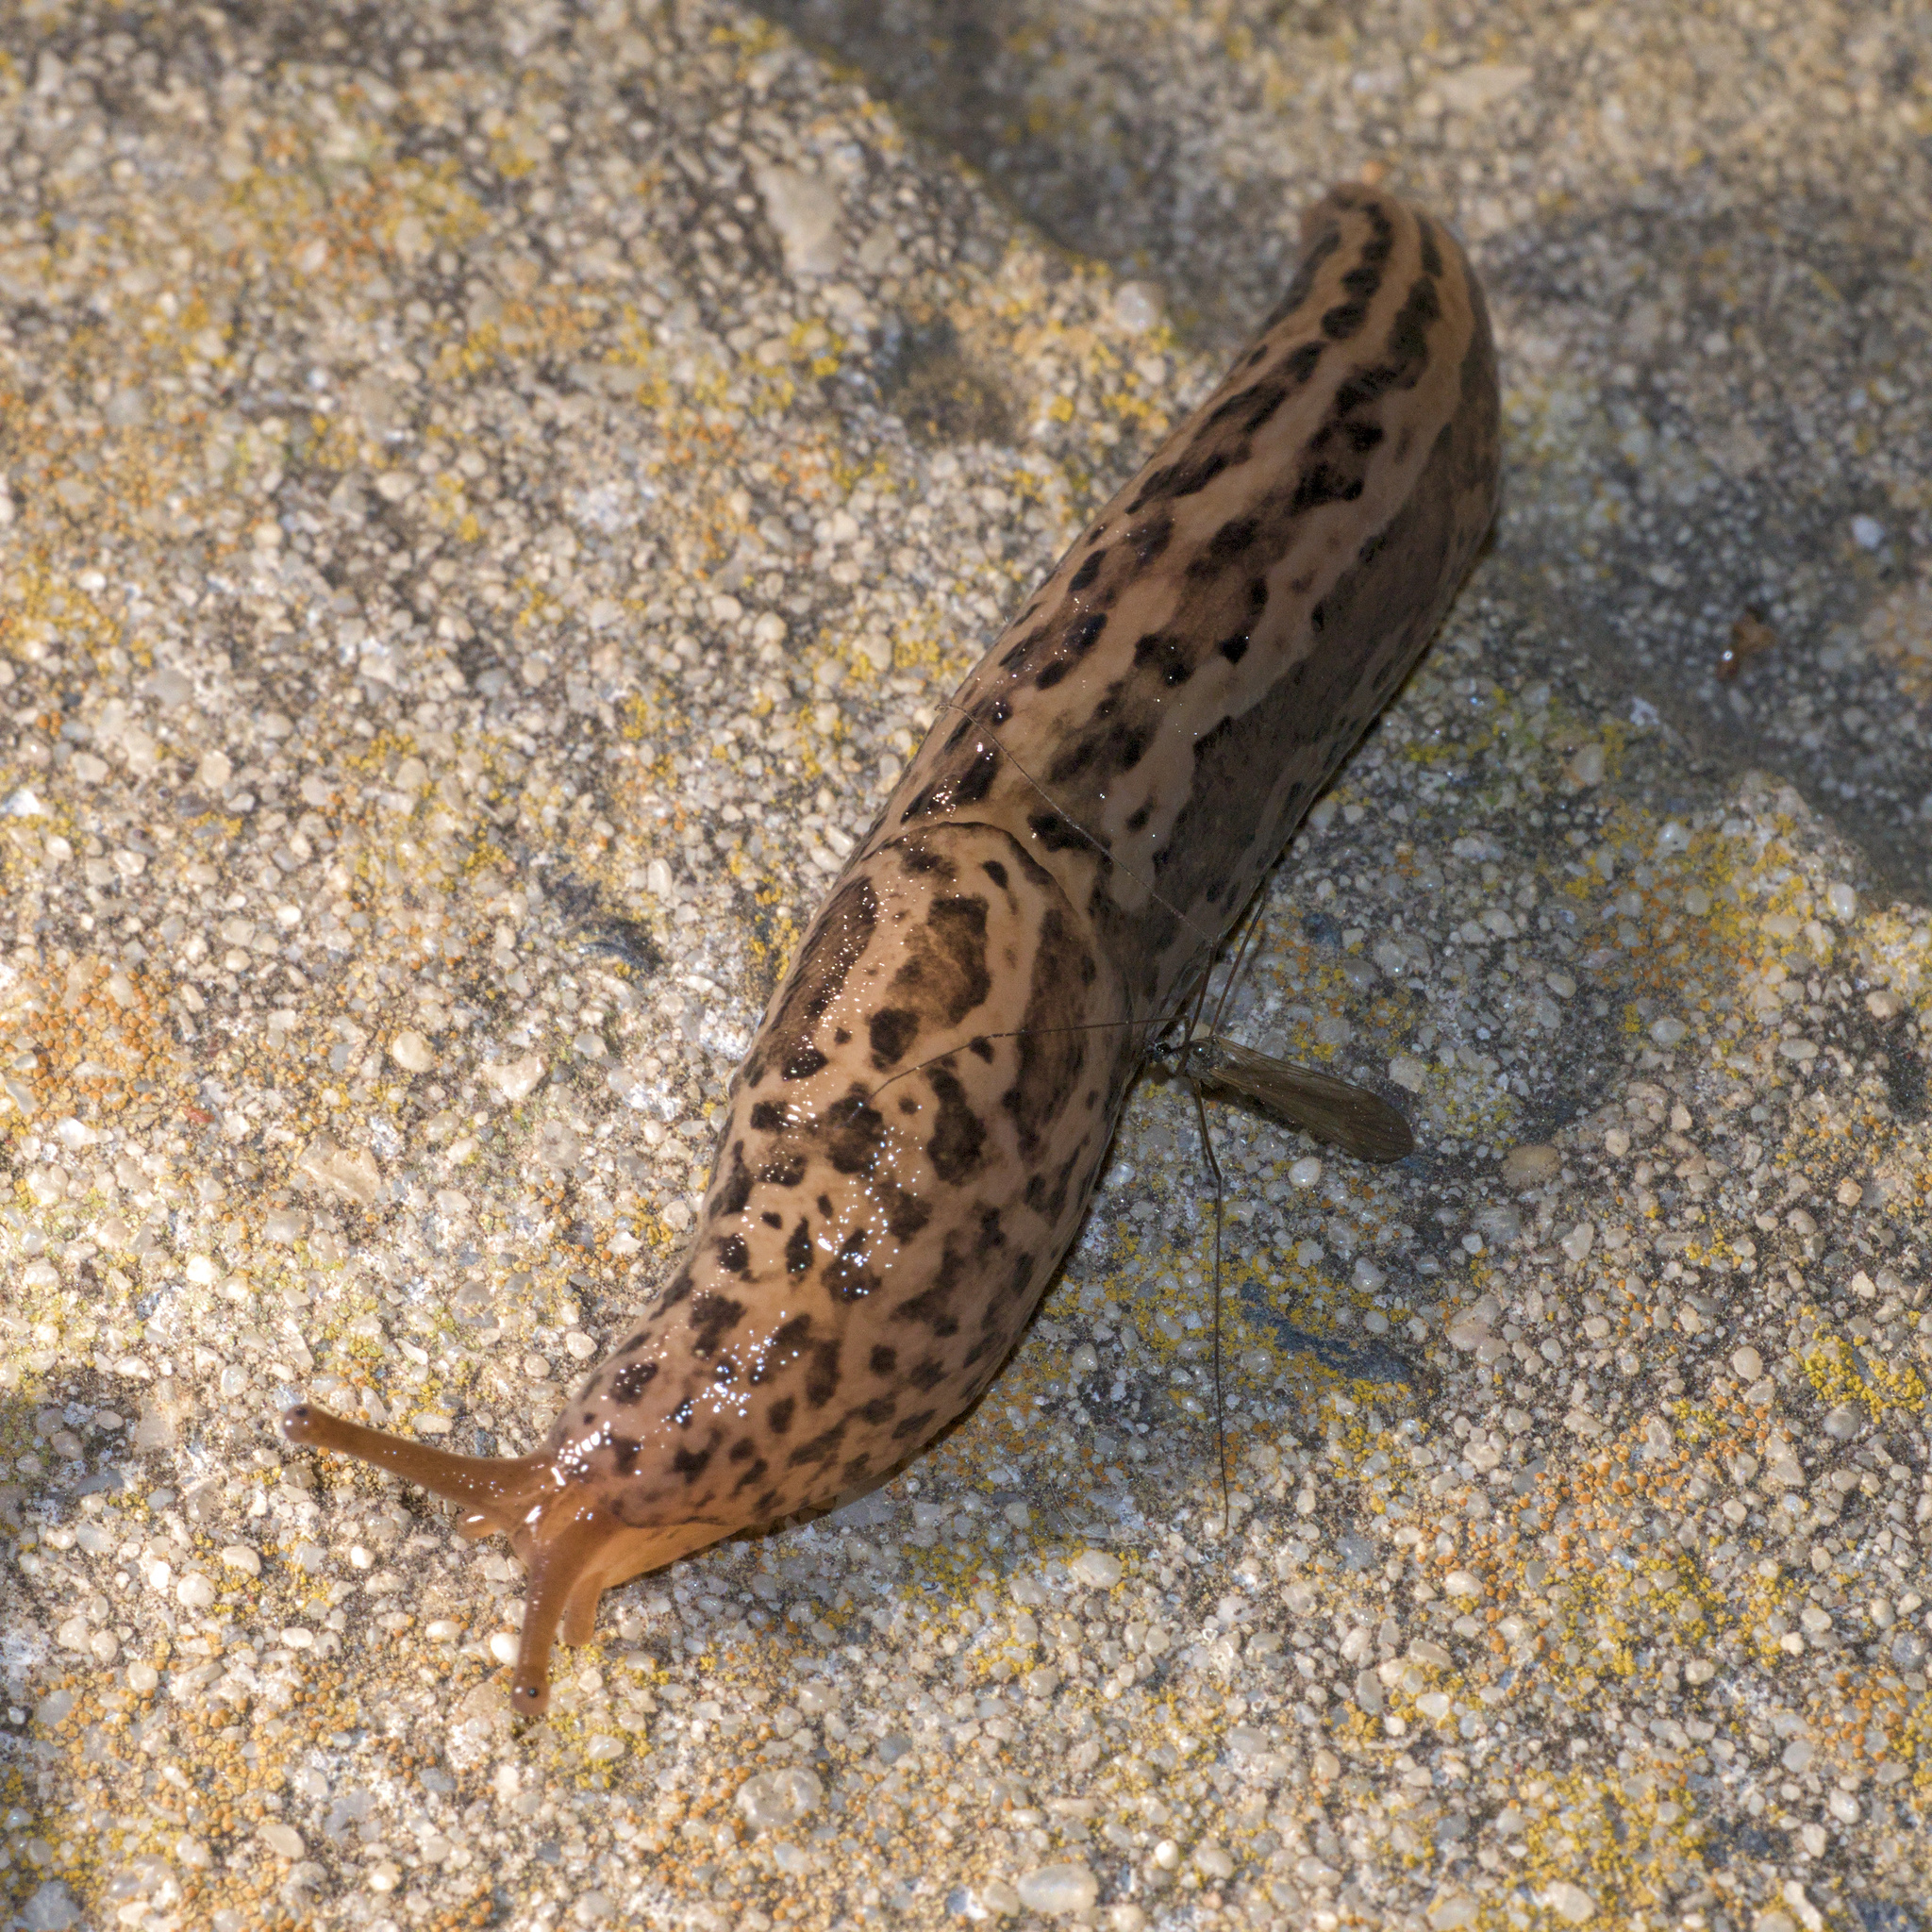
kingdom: Animalia
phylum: Mollusca
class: Gastropoda
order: Stylommatophora
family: Limacidae
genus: Limax
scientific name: Limax maximus
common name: Great grey slug
